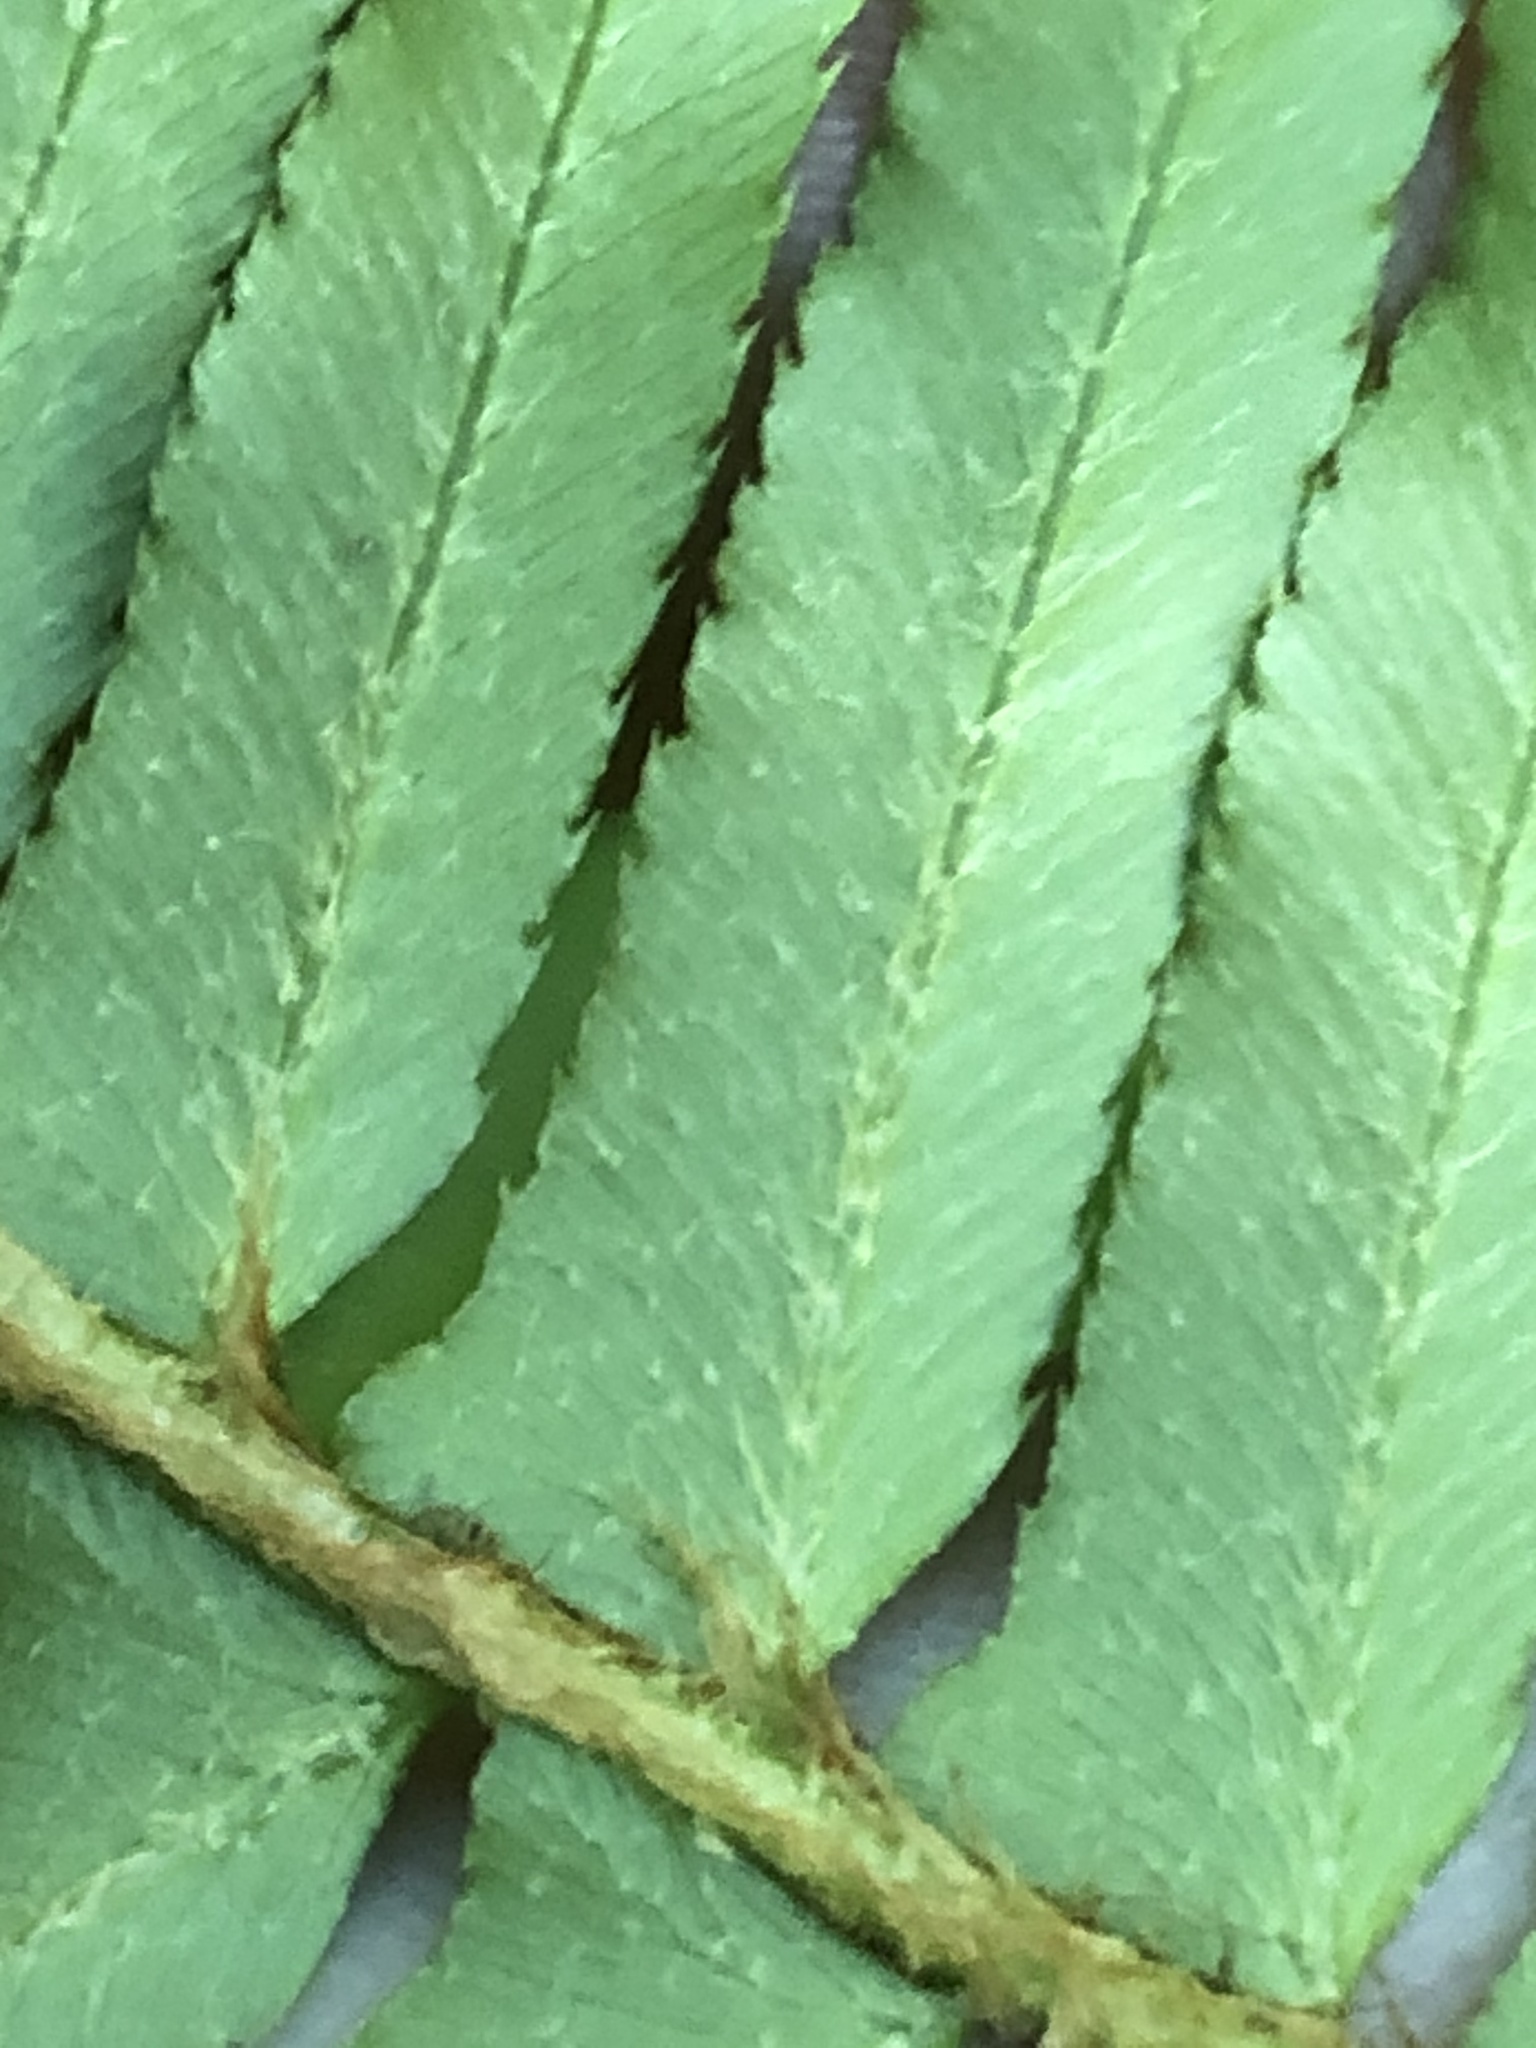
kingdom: Plantae
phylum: Tracheophyta
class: Polypodiopsida
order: Polypodiales
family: Dryopteridaceae
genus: Polystichum
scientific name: Polystichum munitum
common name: Western sword-fern
